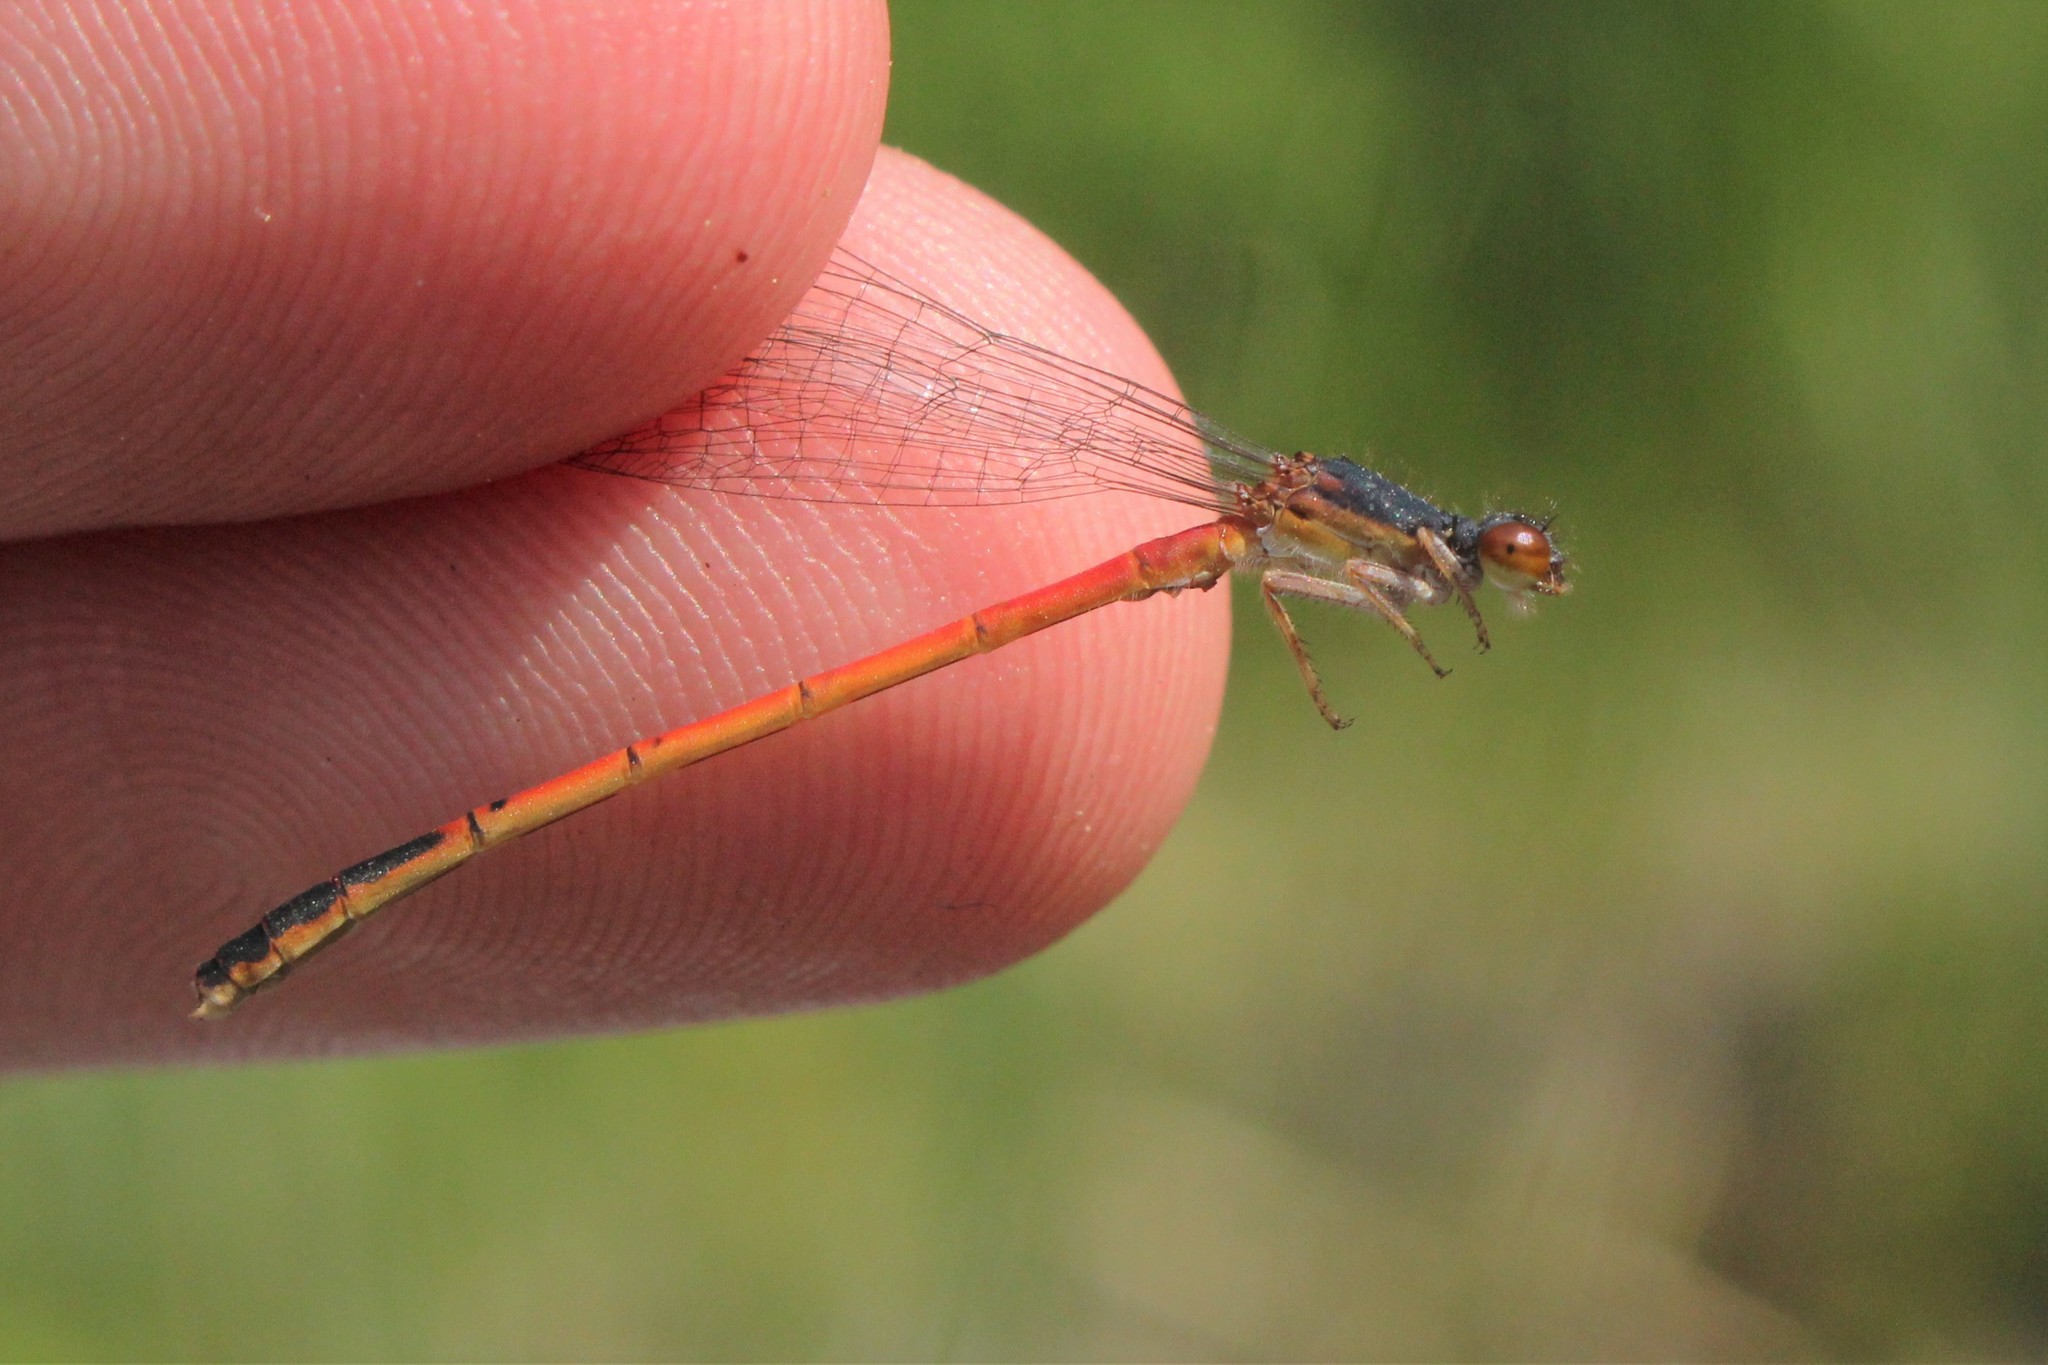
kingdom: Animalia
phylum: Arthropoda
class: Insecta
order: Odonata
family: Coenagrionidae
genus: Amphiagrion
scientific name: Amphiagrion saucium
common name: Eastern red damsel
